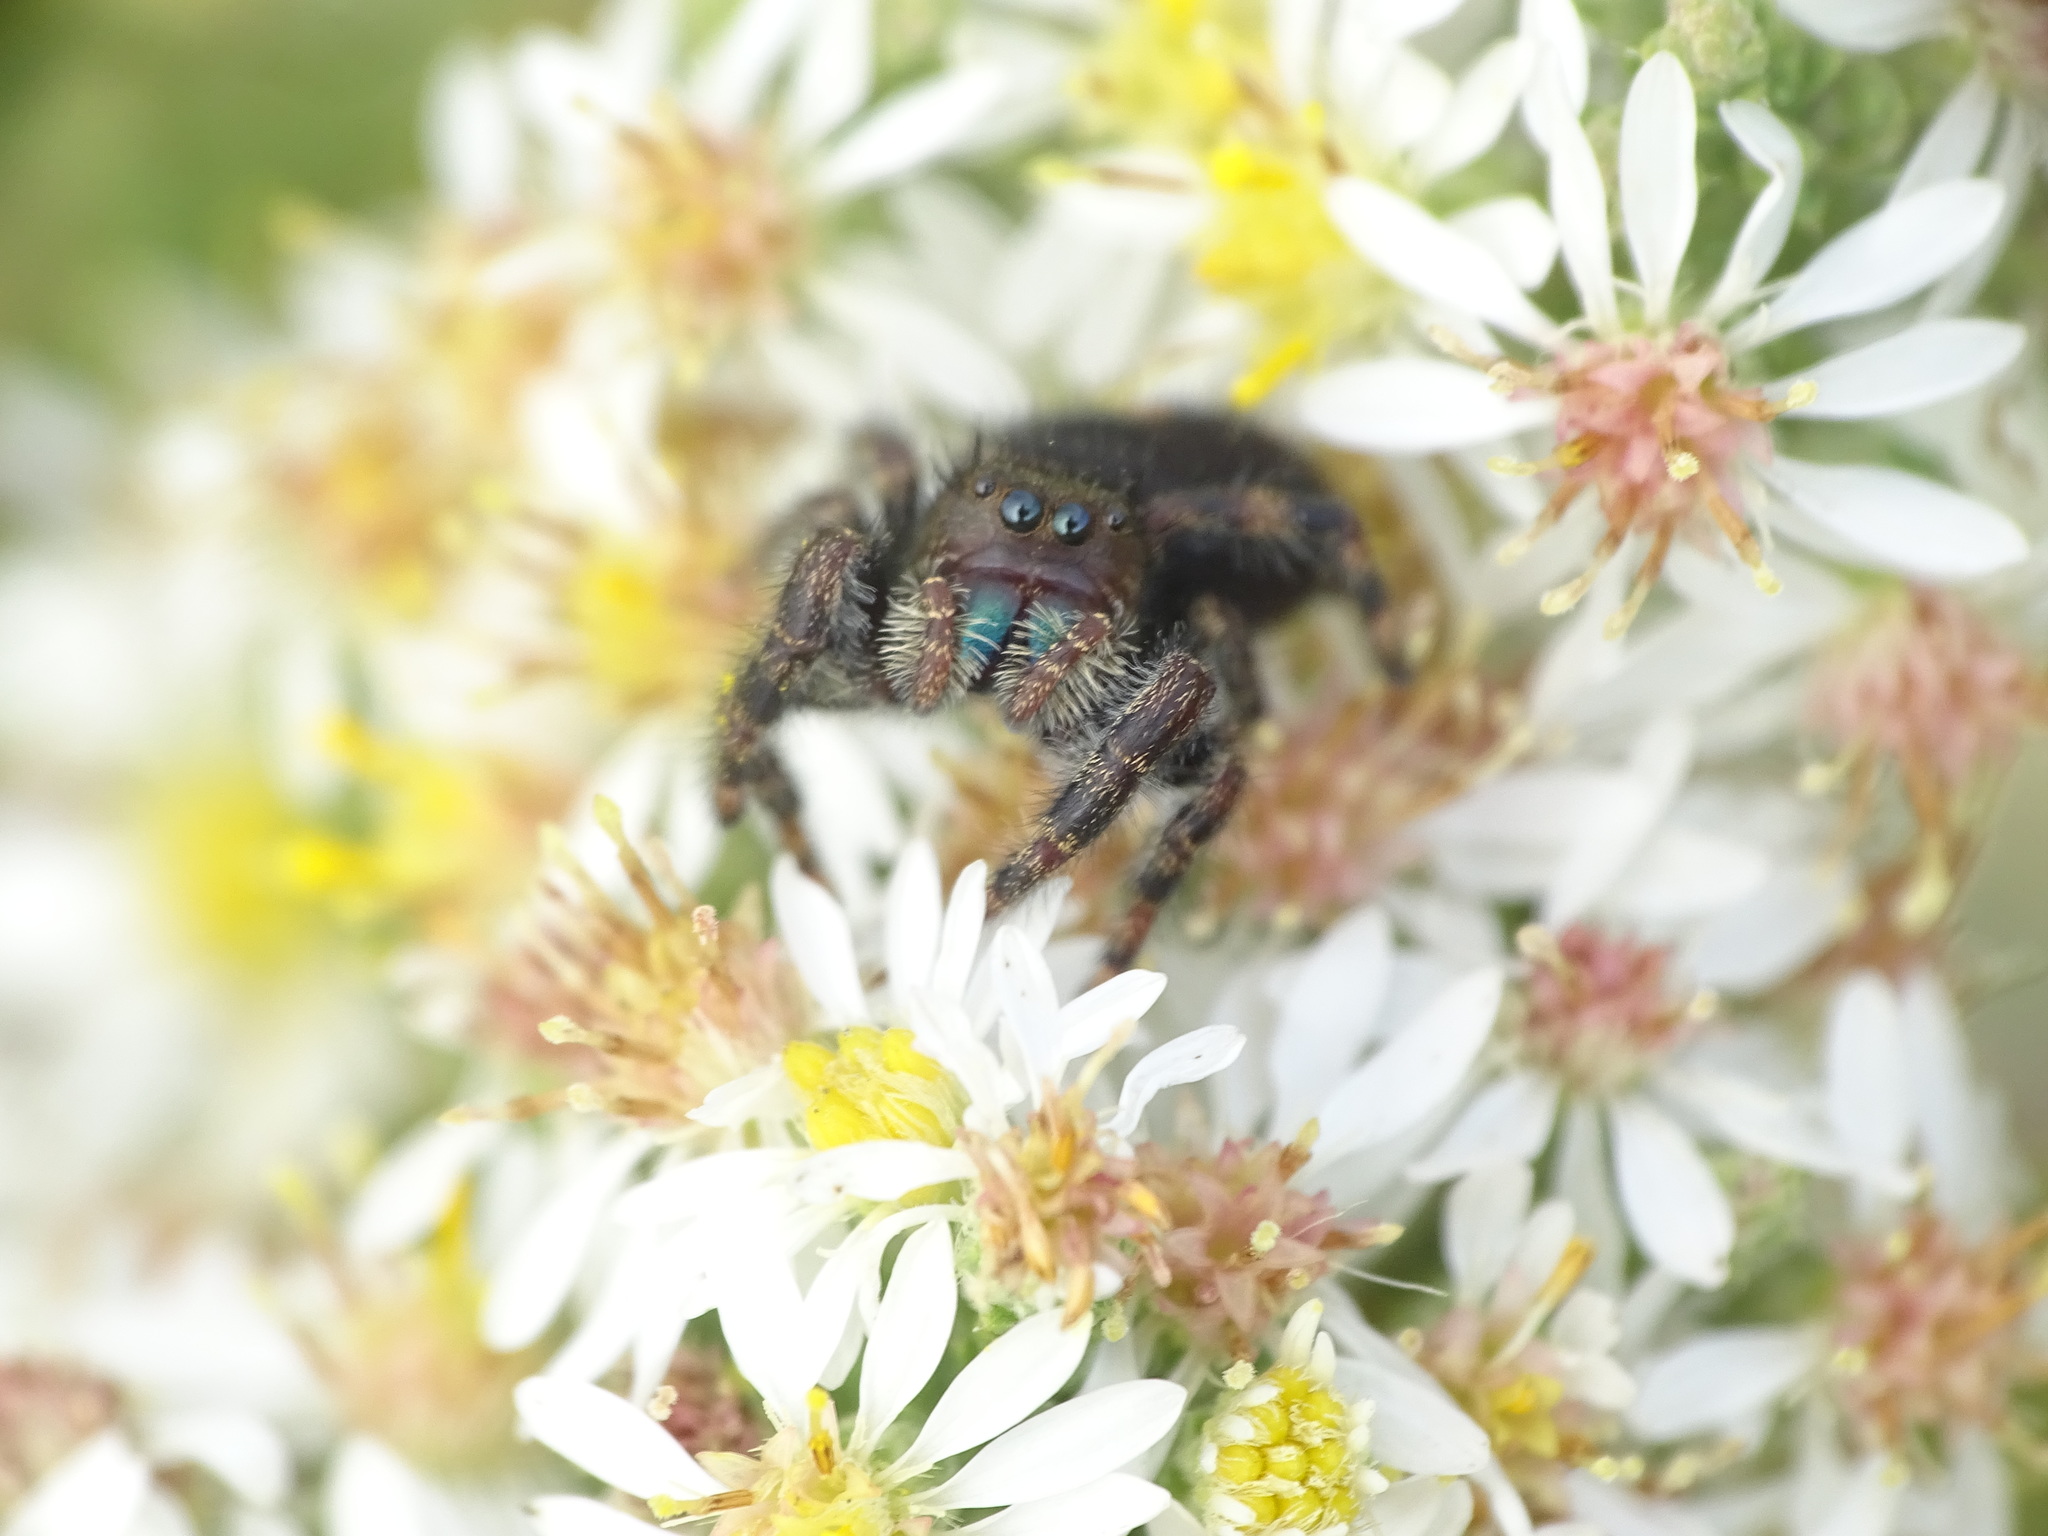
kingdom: Animalia
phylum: Arthropoda
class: Arachnida
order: Araneae
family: Salticidae
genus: Phidippus
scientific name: Phidippus audax
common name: Bold jumper
